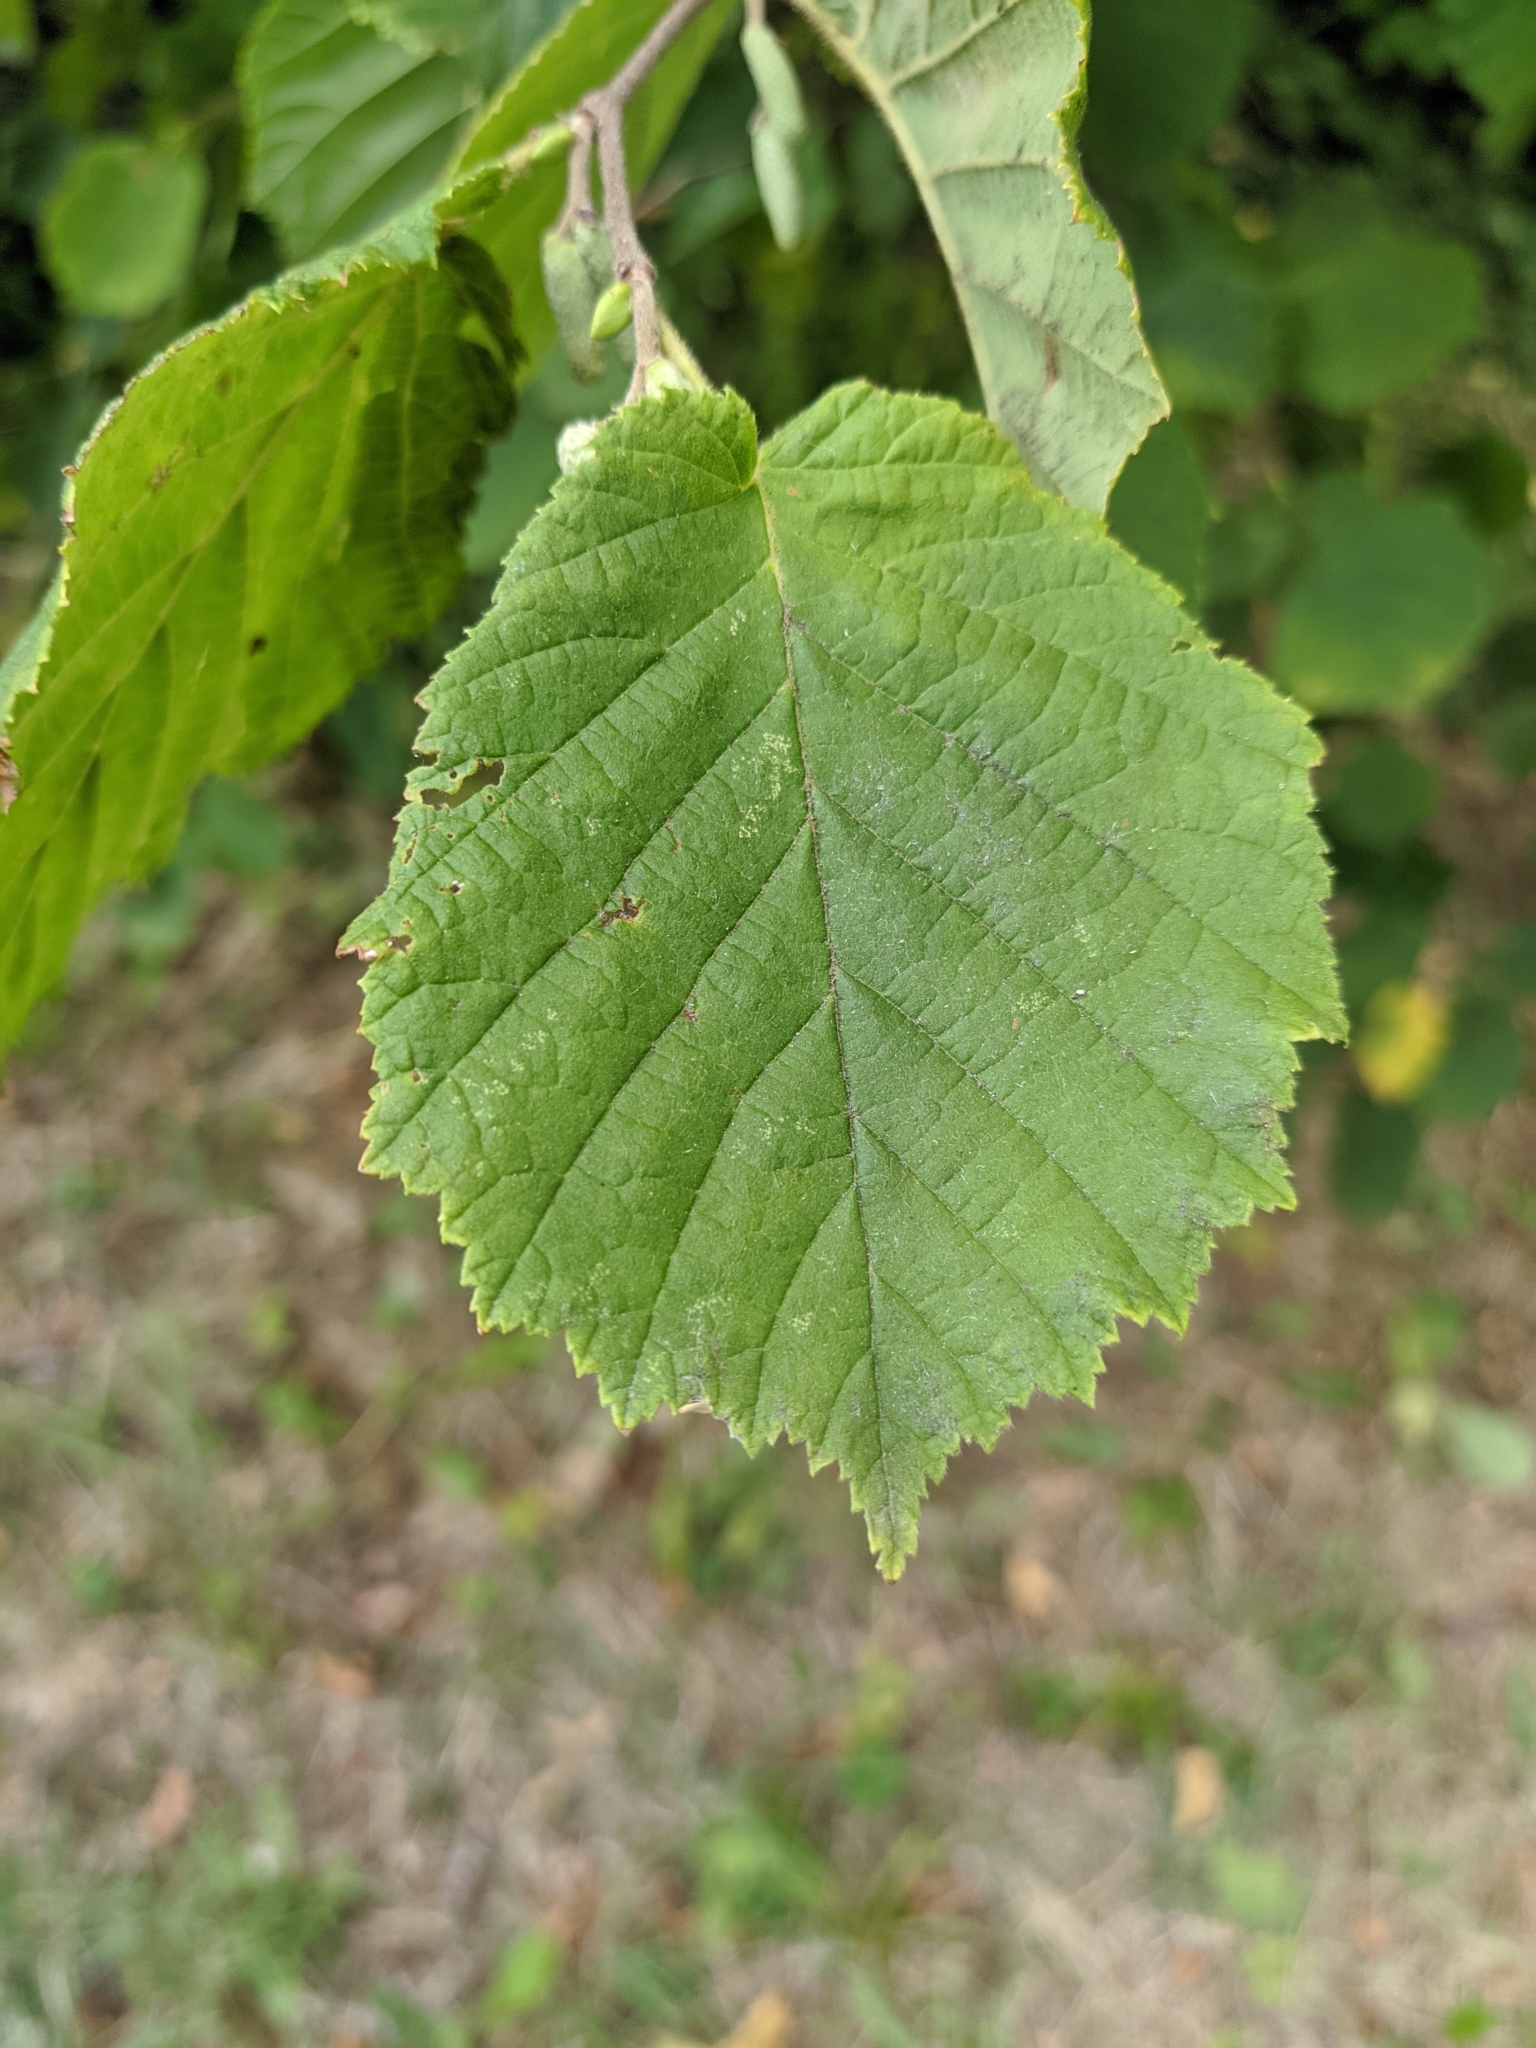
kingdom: Plantae
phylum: Tracheophyta
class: Magnoliopsida
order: Fagales
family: Betulaceae
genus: Corylus
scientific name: Corylus avellana
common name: European hazel
